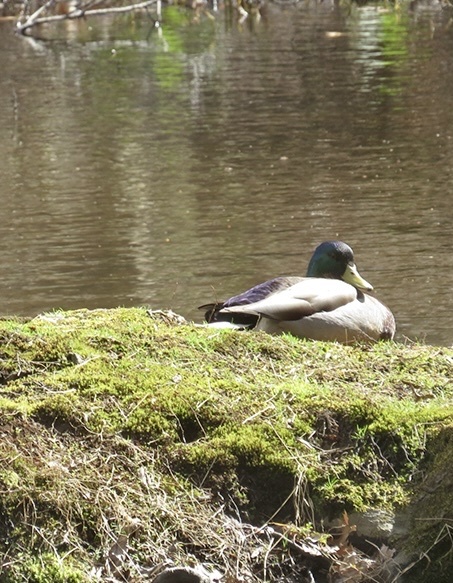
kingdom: Animalia
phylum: Chordata
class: Aves
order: Anseriformes
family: Anatidae
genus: Anas
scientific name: Anas platyrhynchos
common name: Mallard
